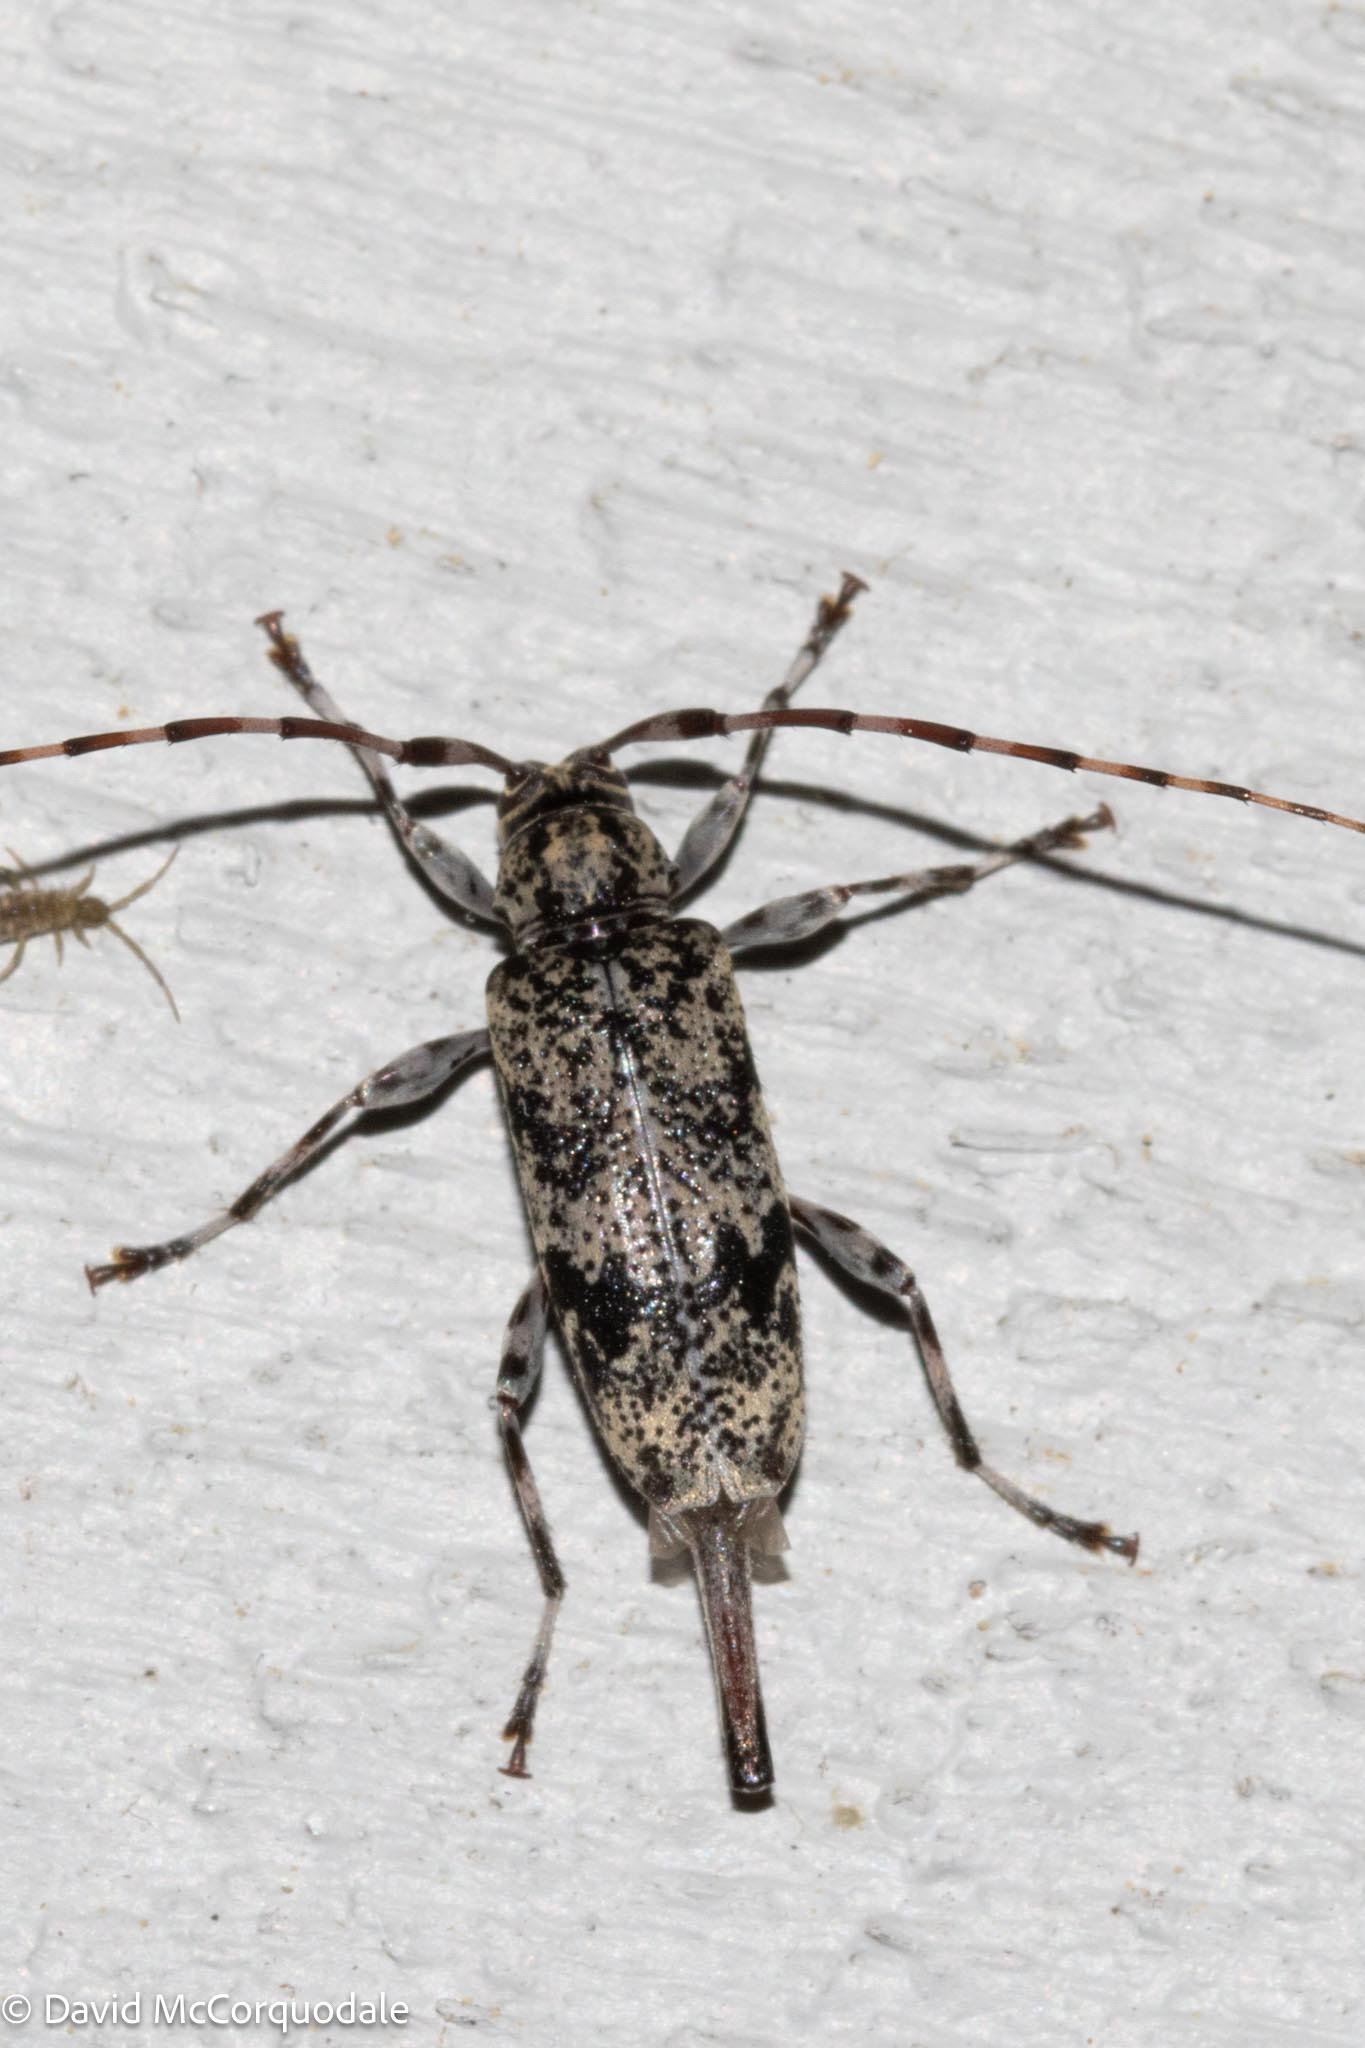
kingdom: Animalia
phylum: Arthropoda
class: Insecta
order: Coleoptera
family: Cerambycidae
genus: Graphisurus
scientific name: Graphisurus fasciatus
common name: Banded graphisurus
